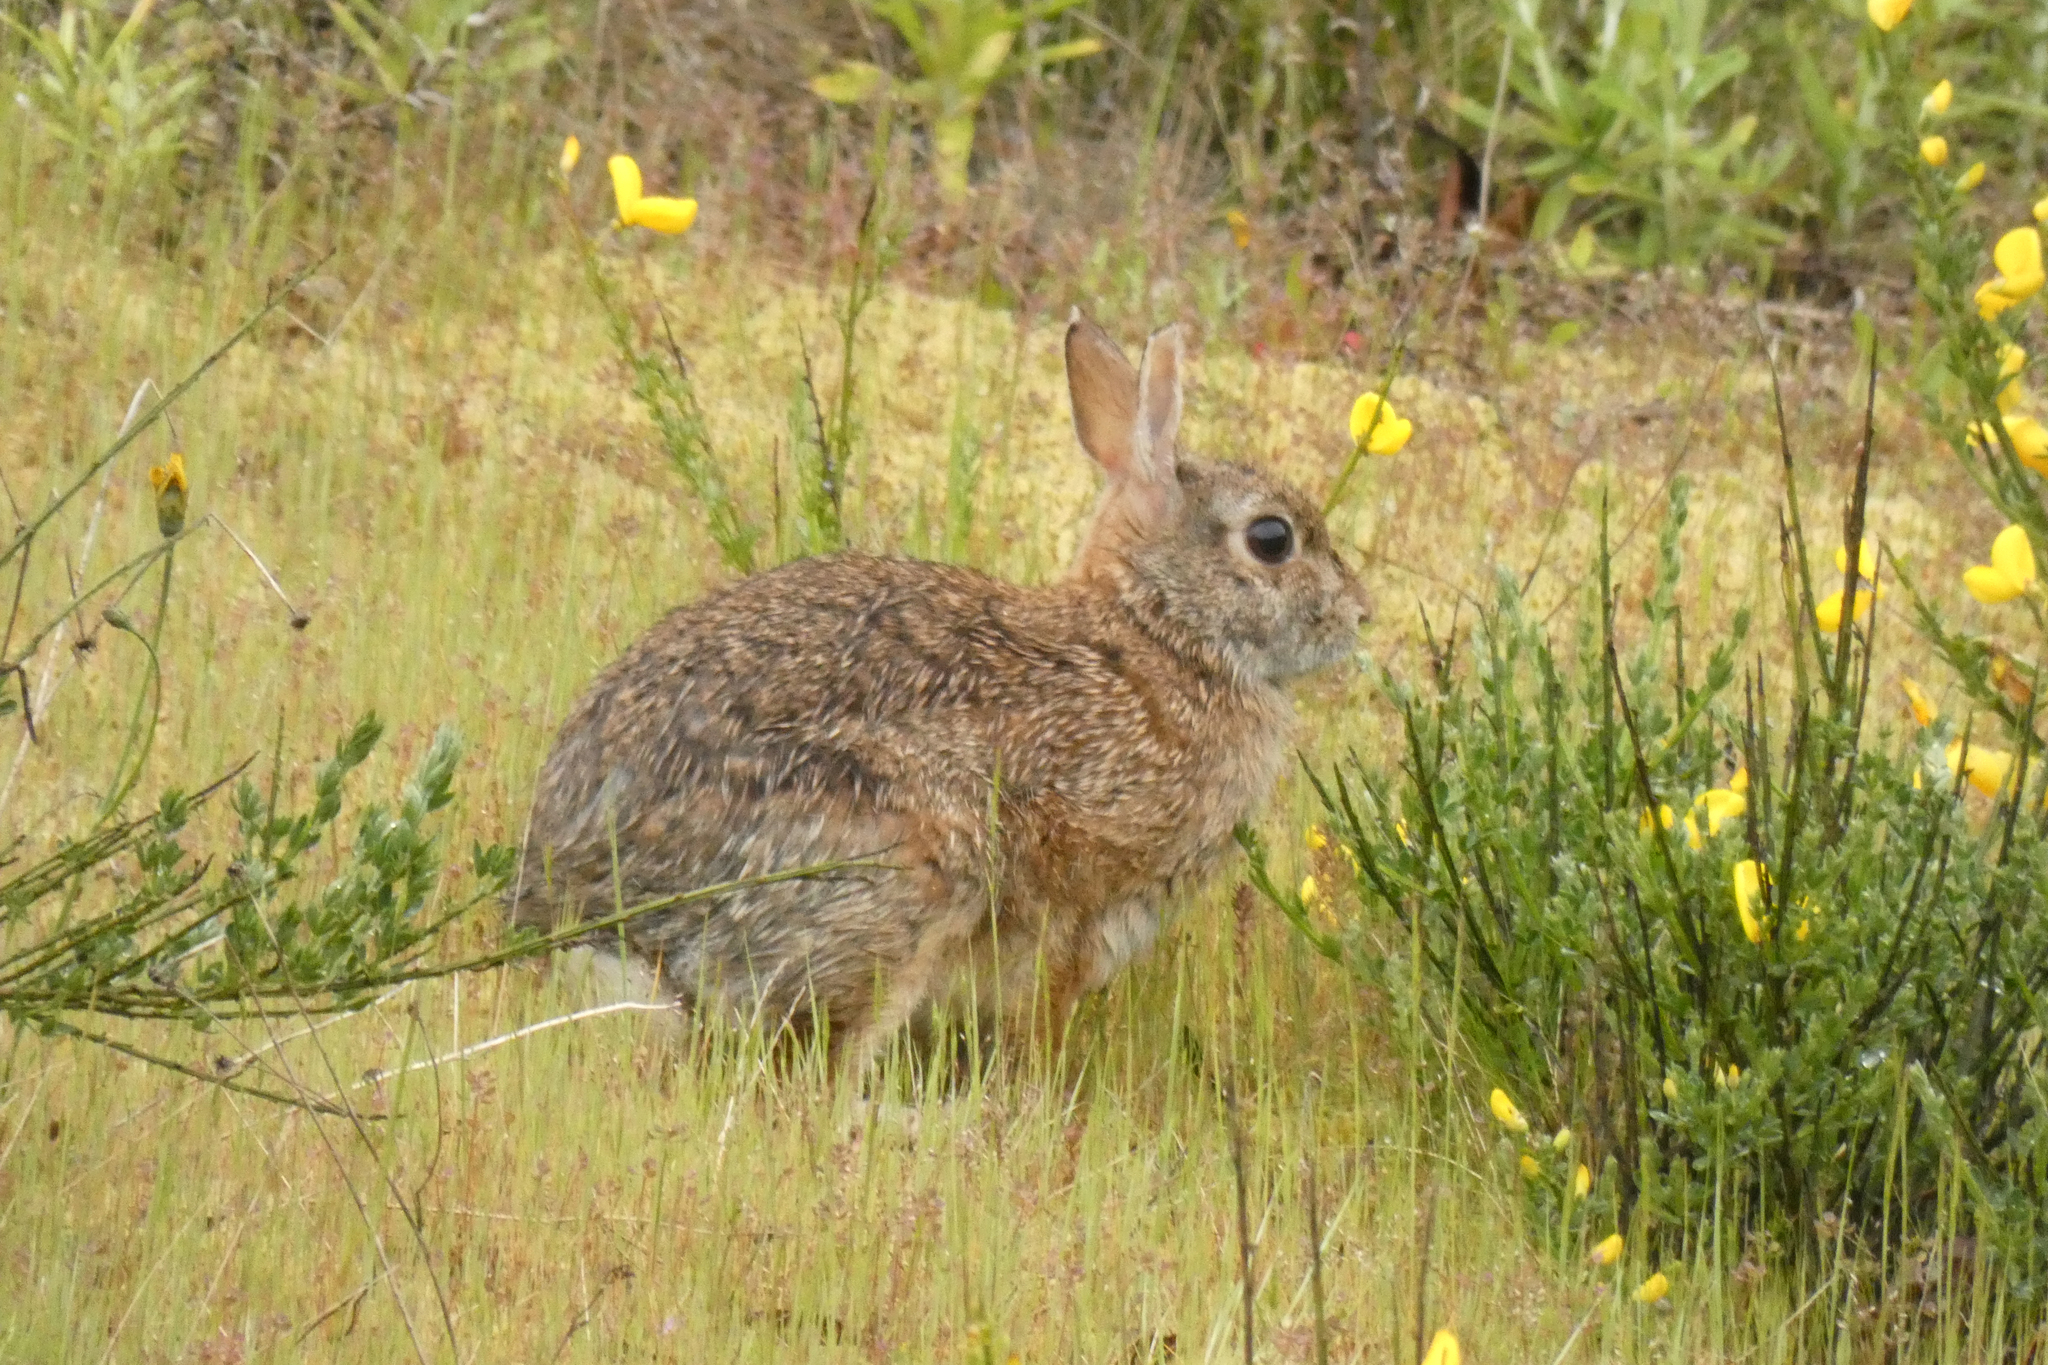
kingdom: Animalia
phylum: Chordata
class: Mammalia
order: Lagomorpha
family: Leporidae
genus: Sylvilagus
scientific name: Sylvilagus floridanus
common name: Eastern cottontail
